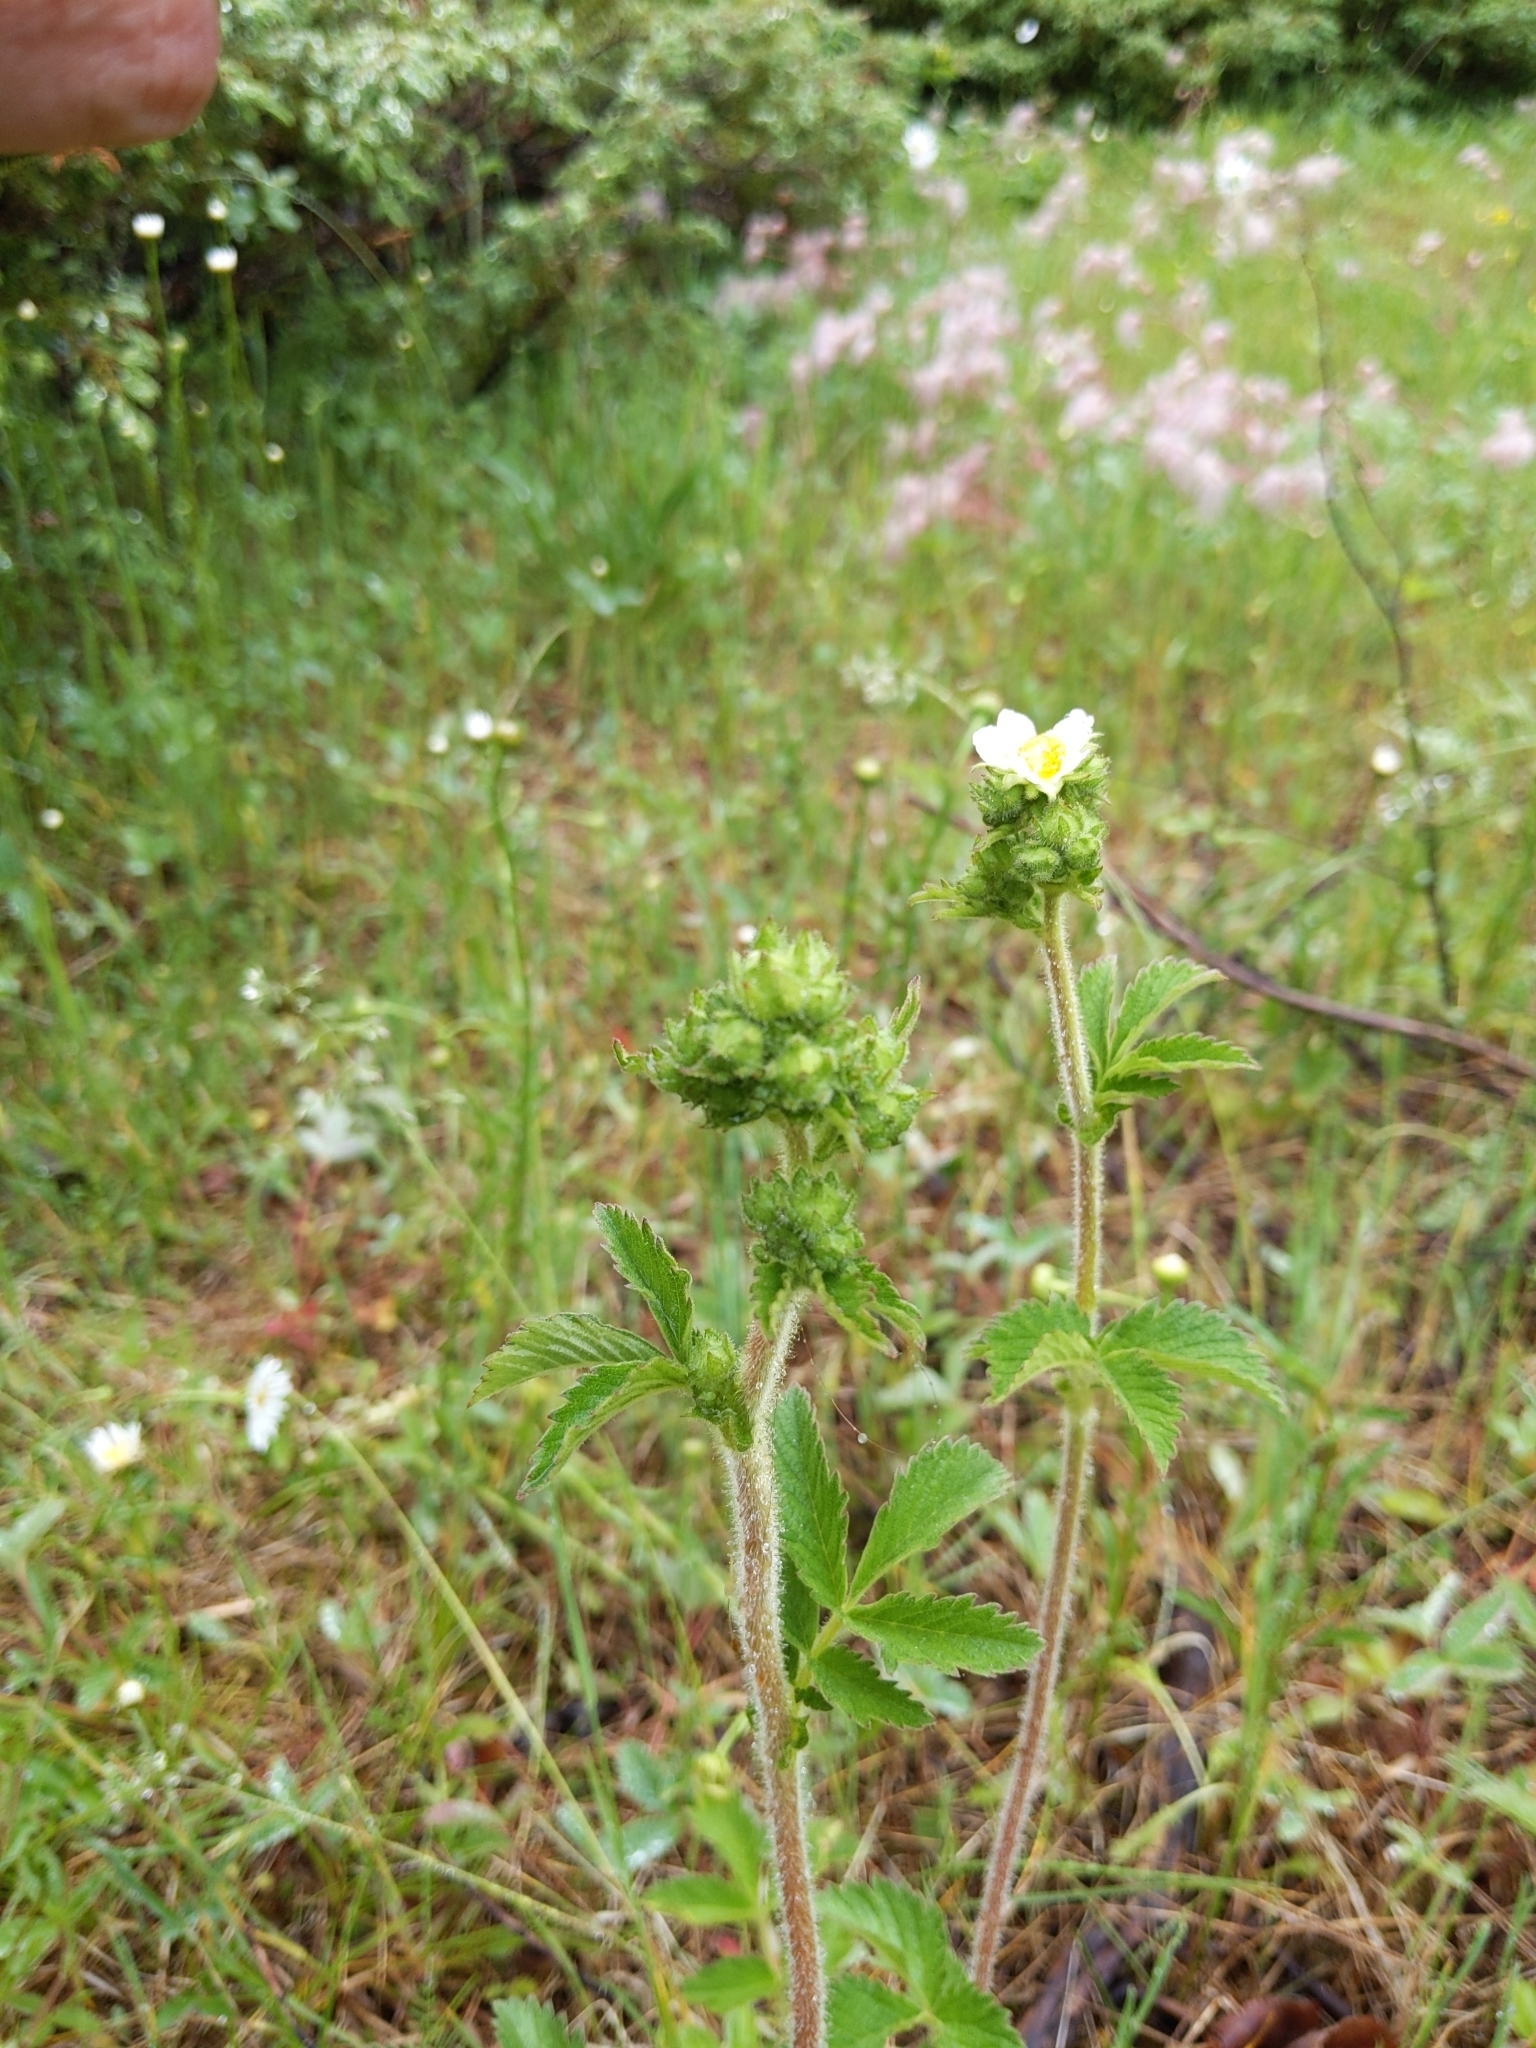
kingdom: Plantae
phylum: Tracheophyta
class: Magnoliopsida
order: Rosales
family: Rosaceae
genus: Drymocallis
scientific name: Drymocallis arguta
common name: Tall cinquefoil
